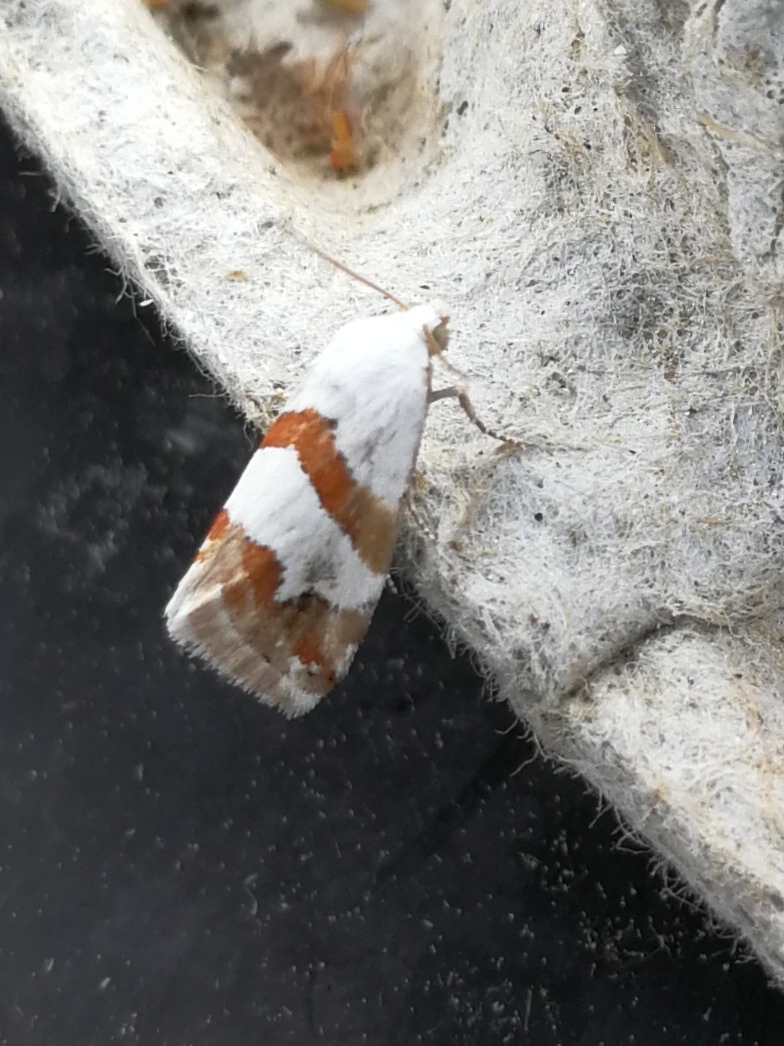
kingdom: Animalia
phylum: Arthropoda
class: Insecta
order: Lepidoptera
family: Noctuidae
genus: Eublemma
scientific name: Eublemma candidana
